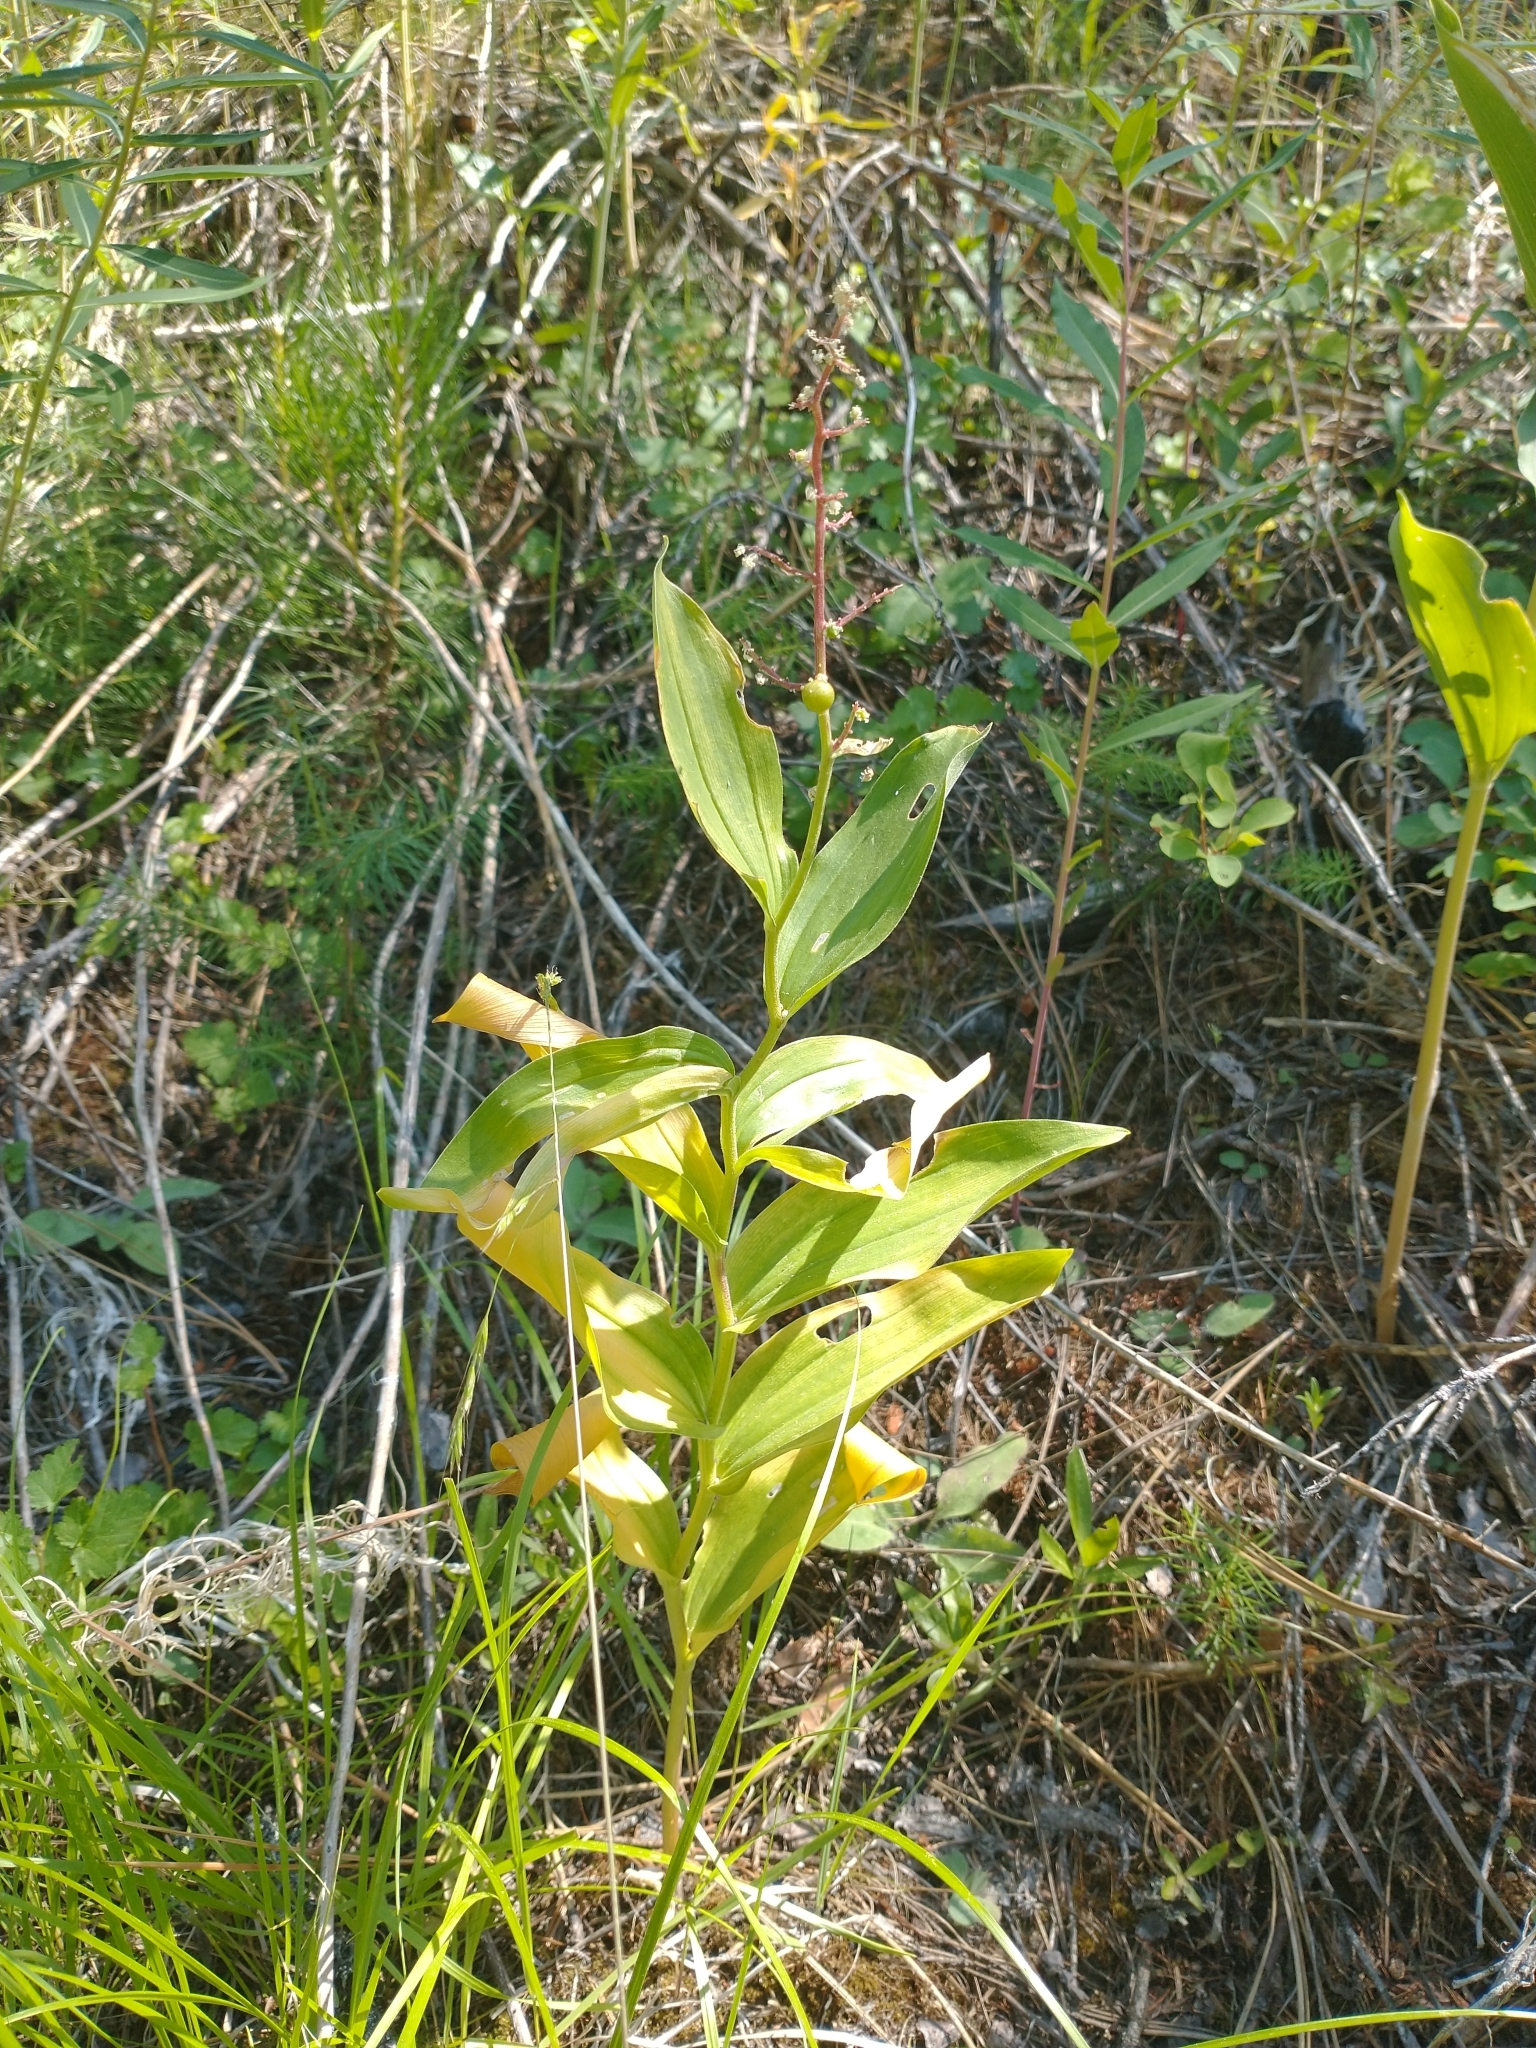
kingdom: Plantae
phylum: Tracheophyta
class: Liliopsida
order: Asparagales
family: Asparagaceae
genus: Maianthemum
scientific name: Maianthemum racemosum
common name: False spikenard
